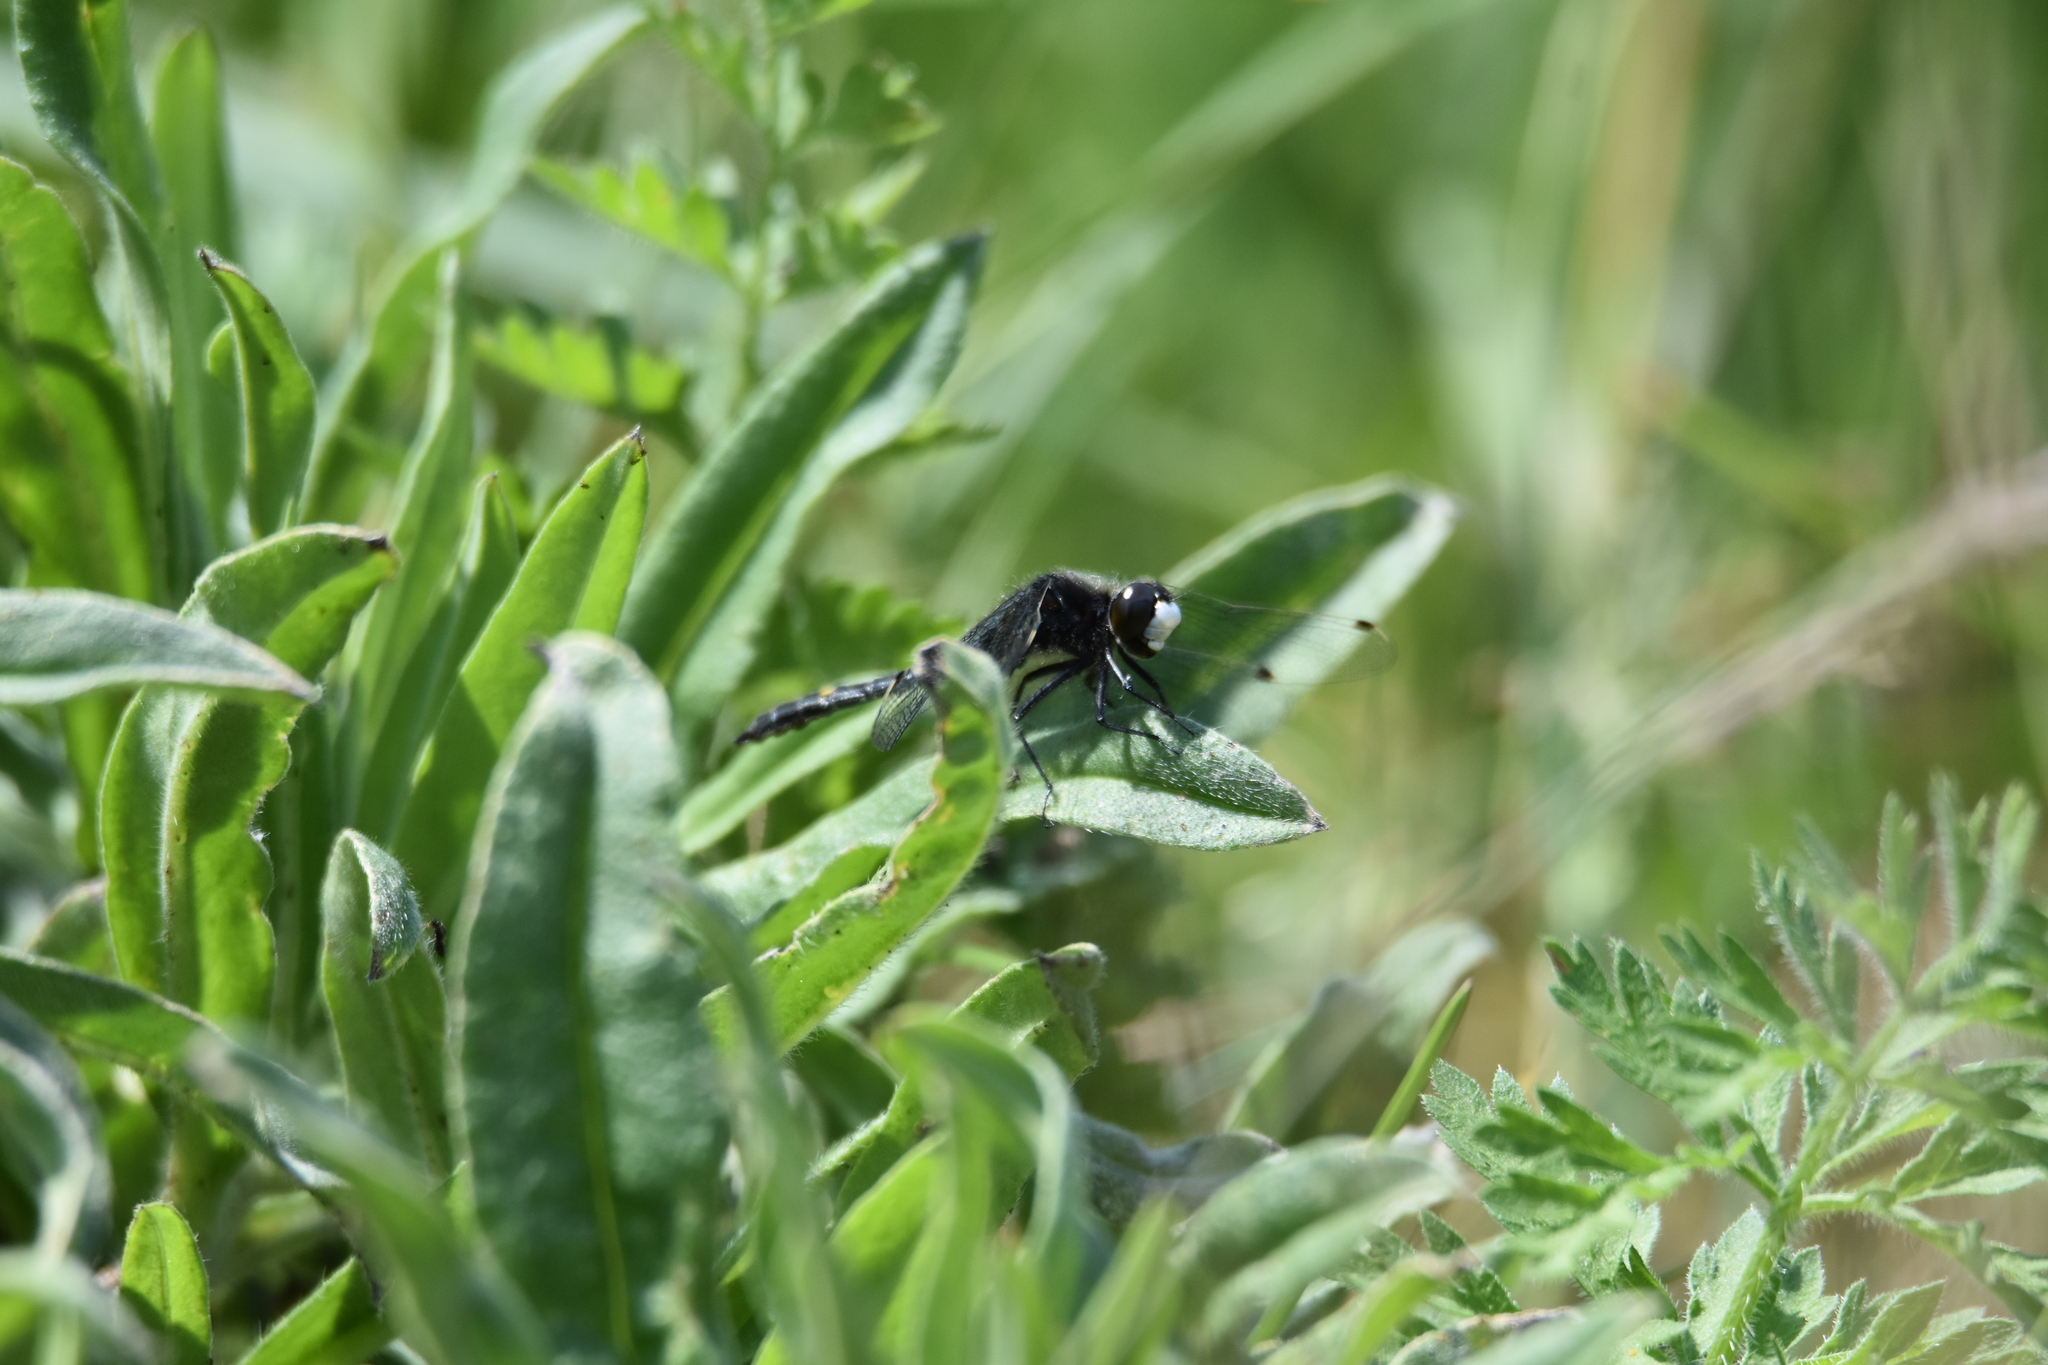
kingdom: Animalia
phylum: Arthropoda
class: Insecta
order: Odonata
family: Libellulidae
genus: Leucorrhinia
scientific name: Leucorrhinia intacta
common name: Dot-tailed whiteface
